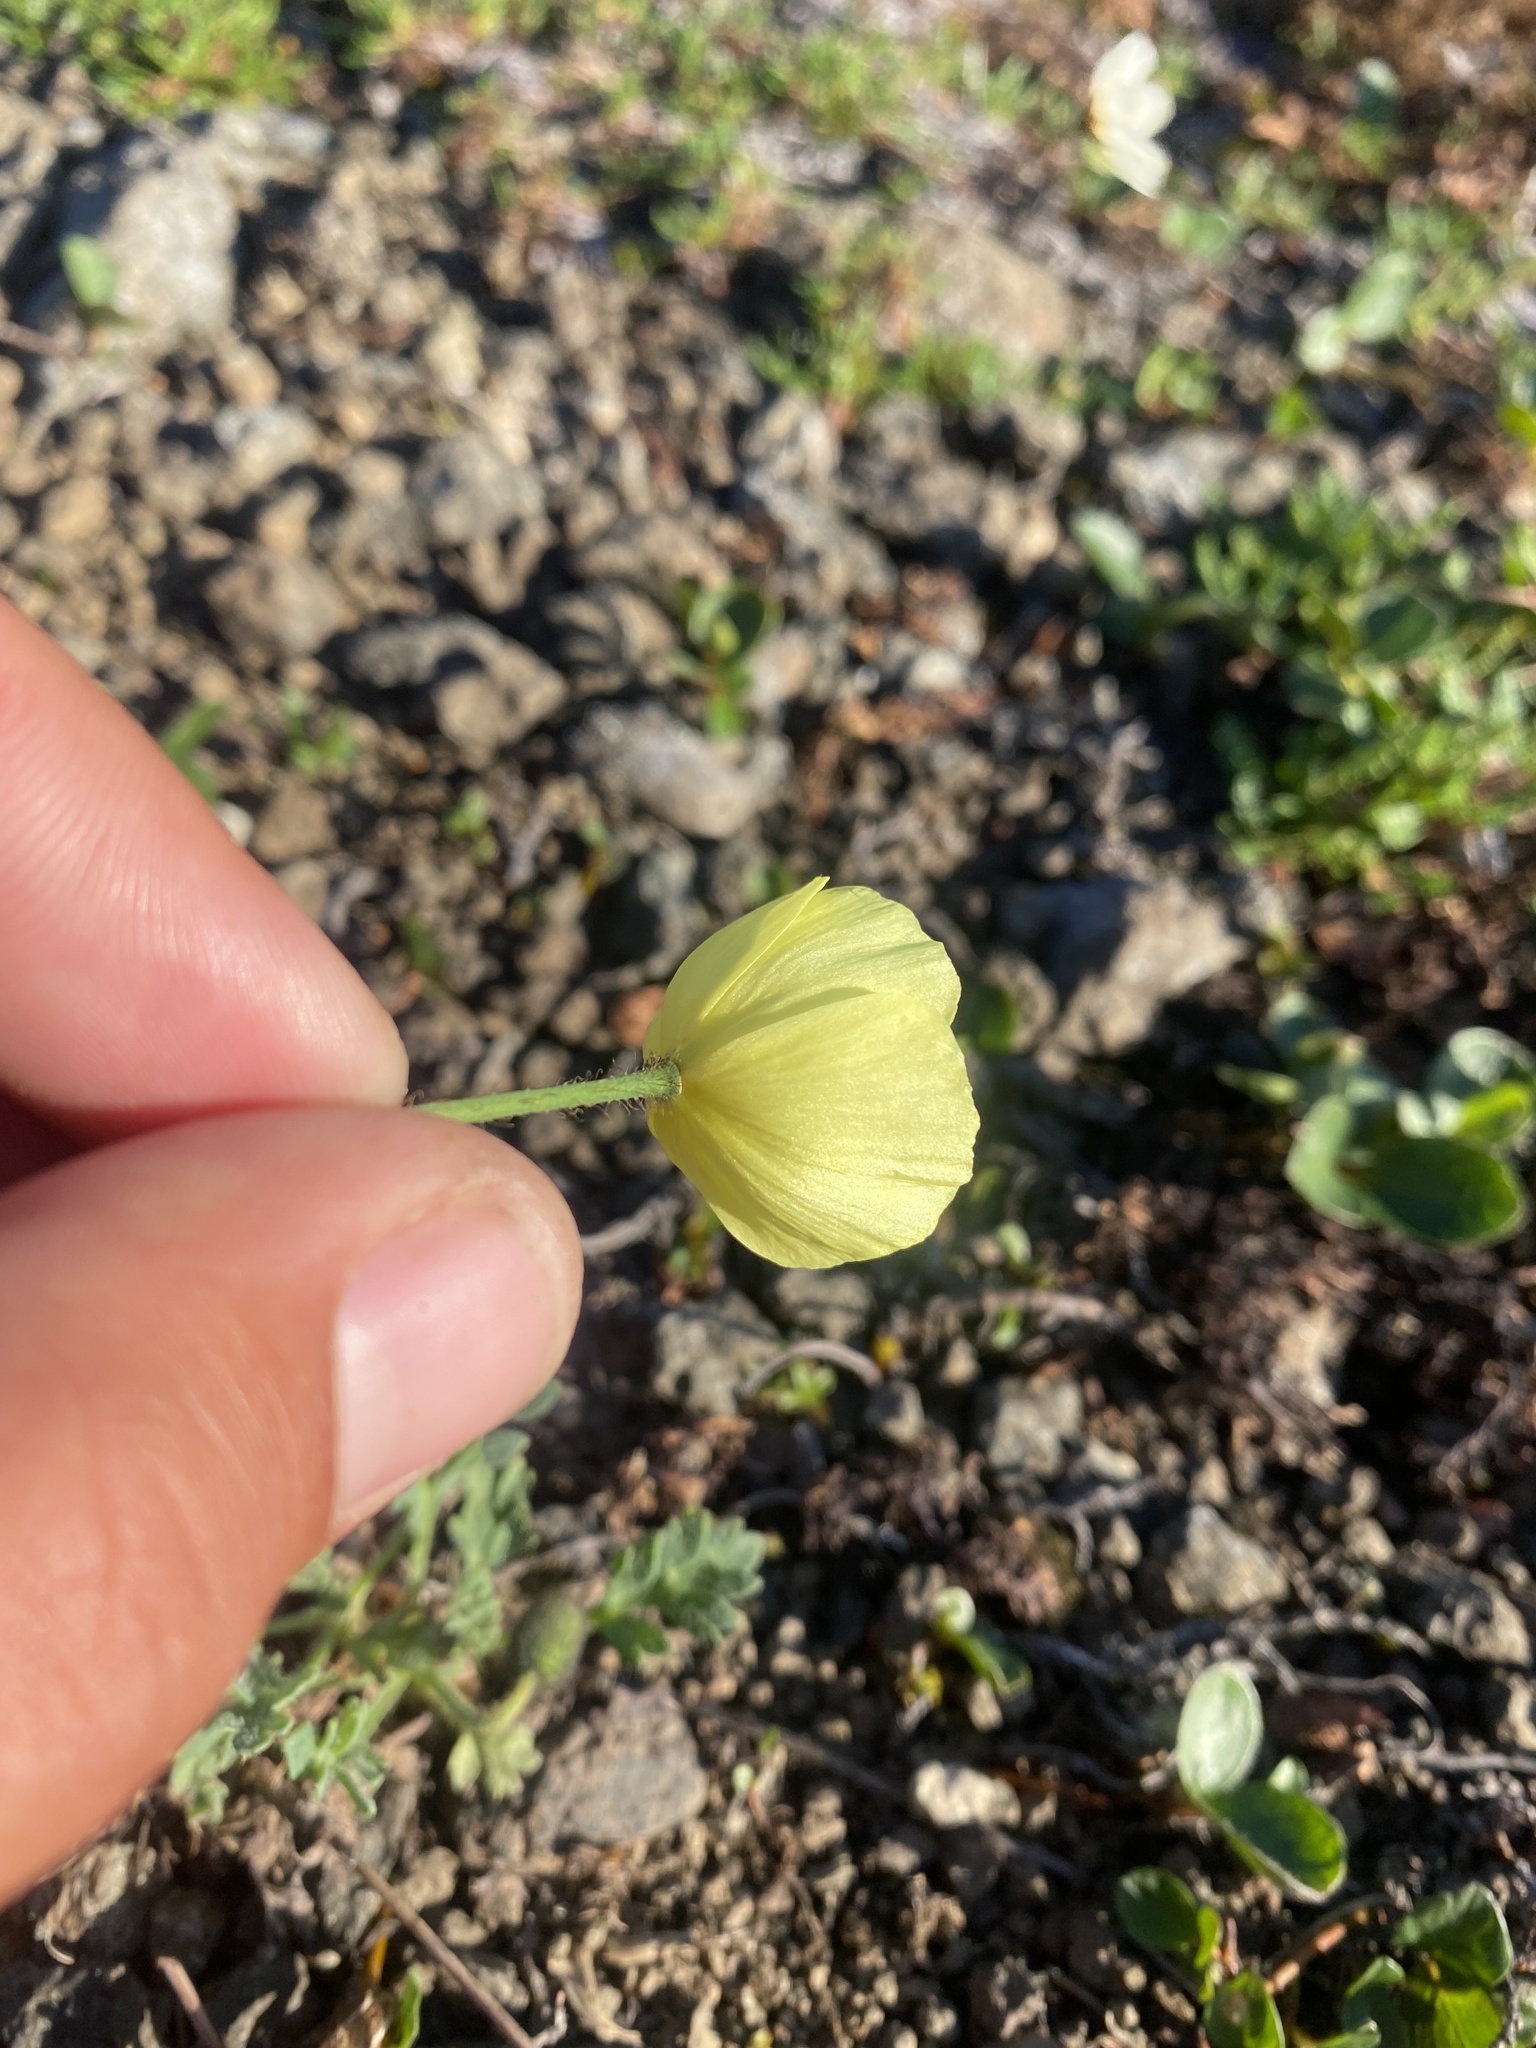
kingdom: Plantae
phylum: Tracheophyta
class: Magnoliopsida
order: Ranunculales
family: Papaveraceae
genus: Papaver
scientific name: Papaver pulvinatum
